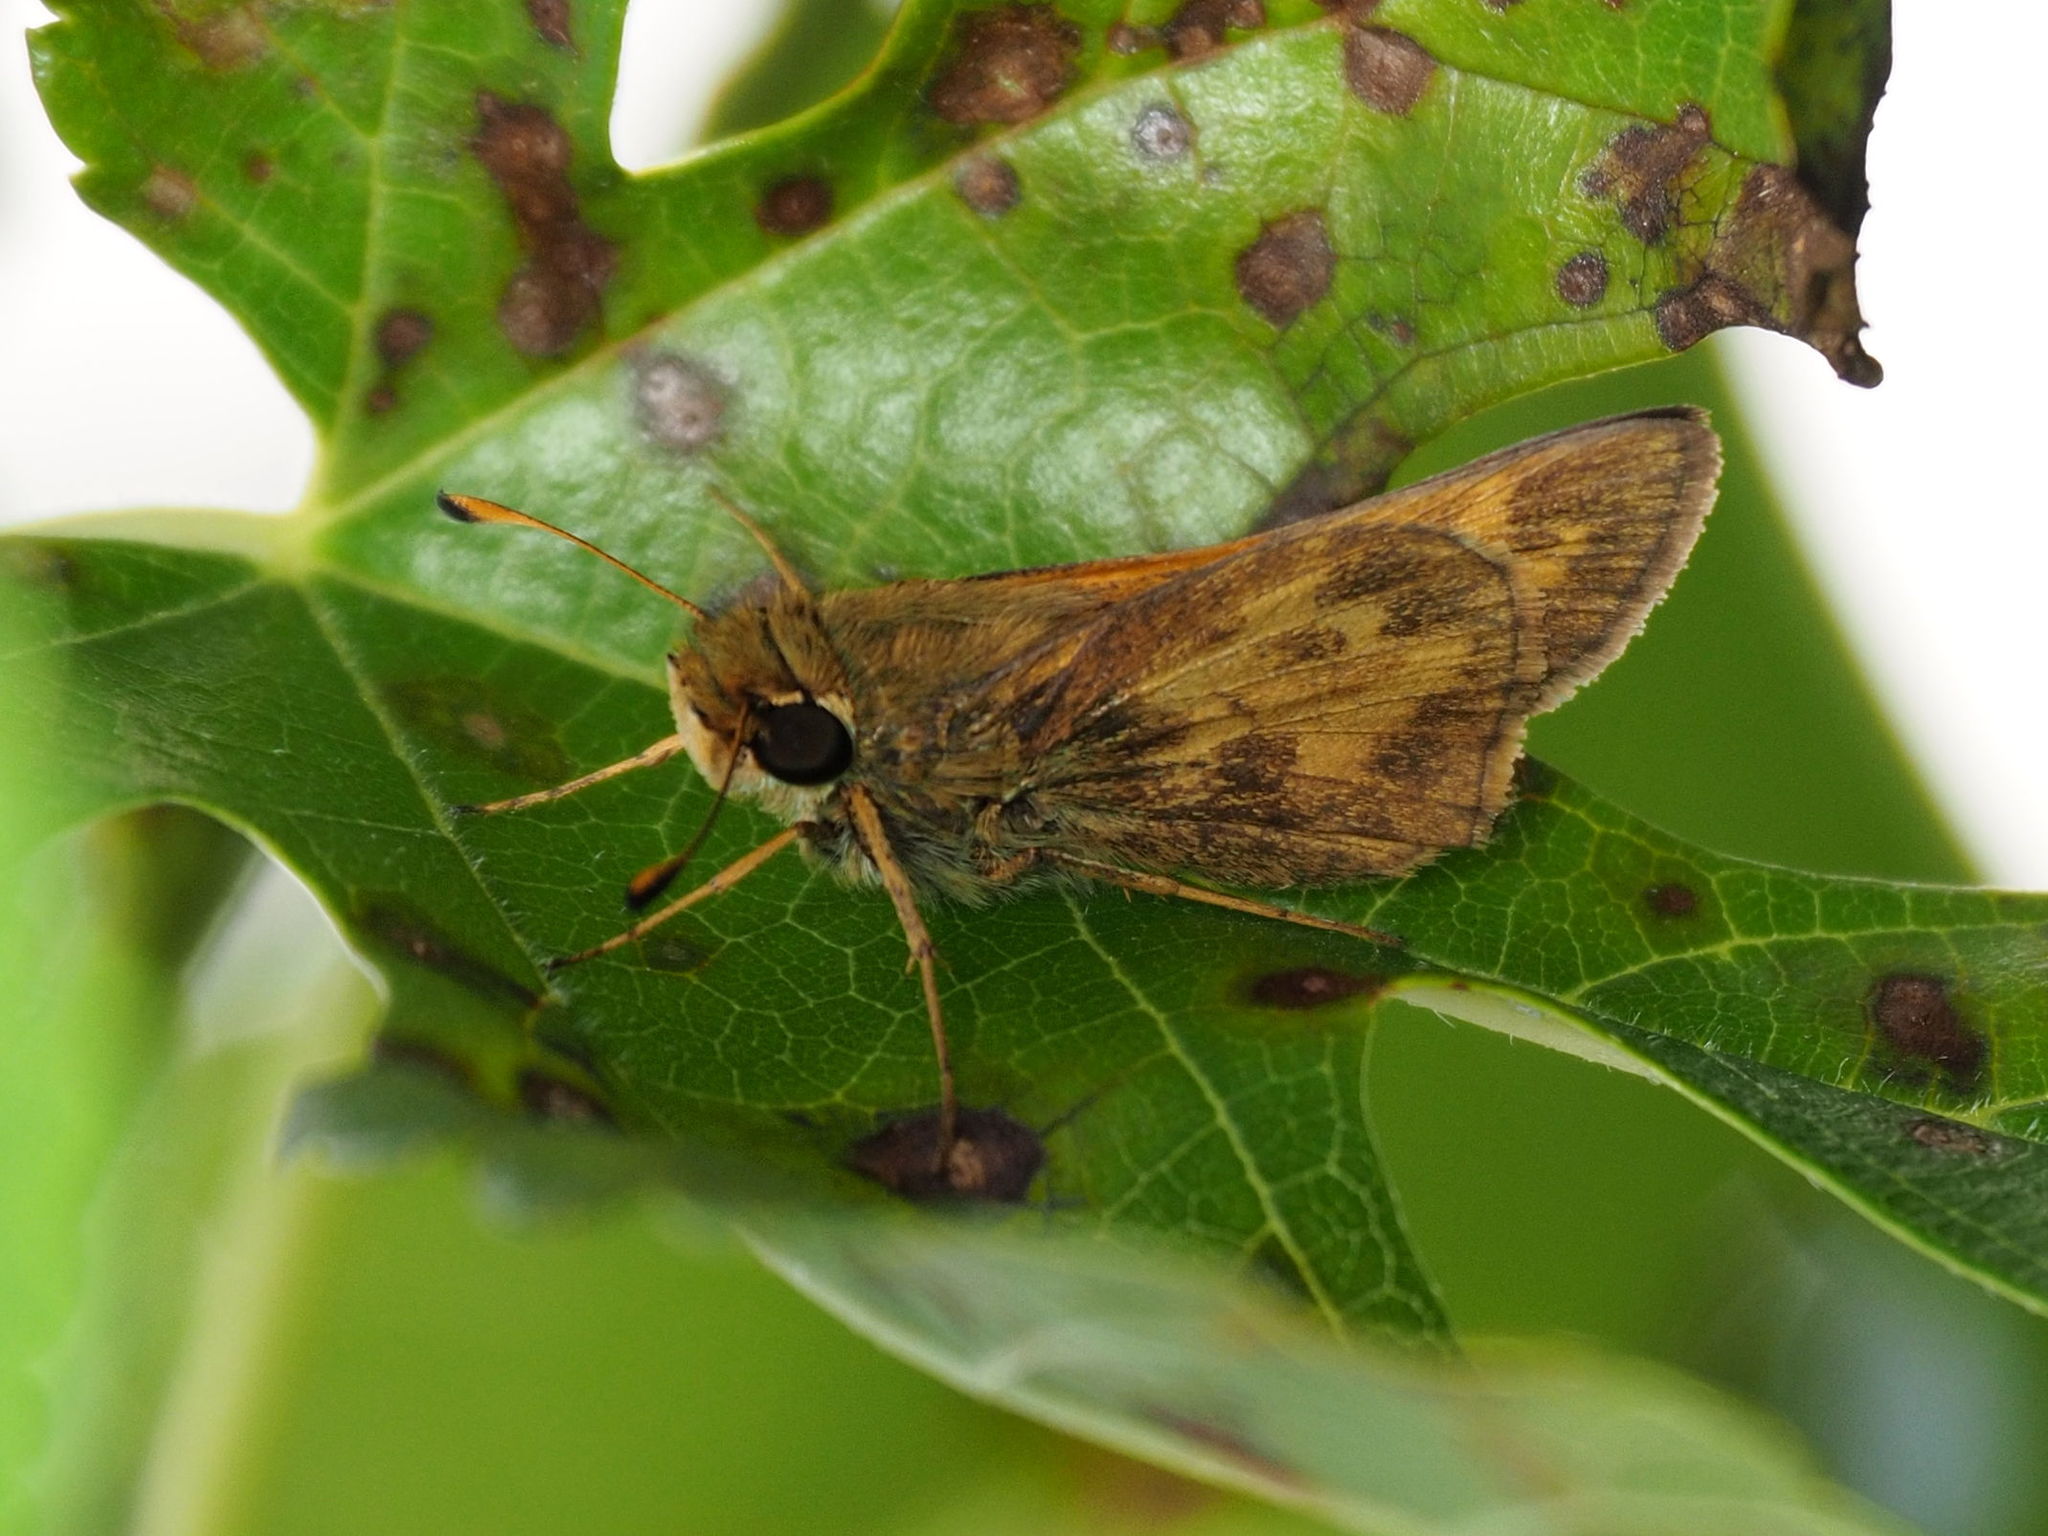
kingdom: Animalia
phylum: Arthropoda
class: Insecta
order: Lepidoptera
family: Hesperiidae
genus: Atalopedes
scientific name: Atalopedes
